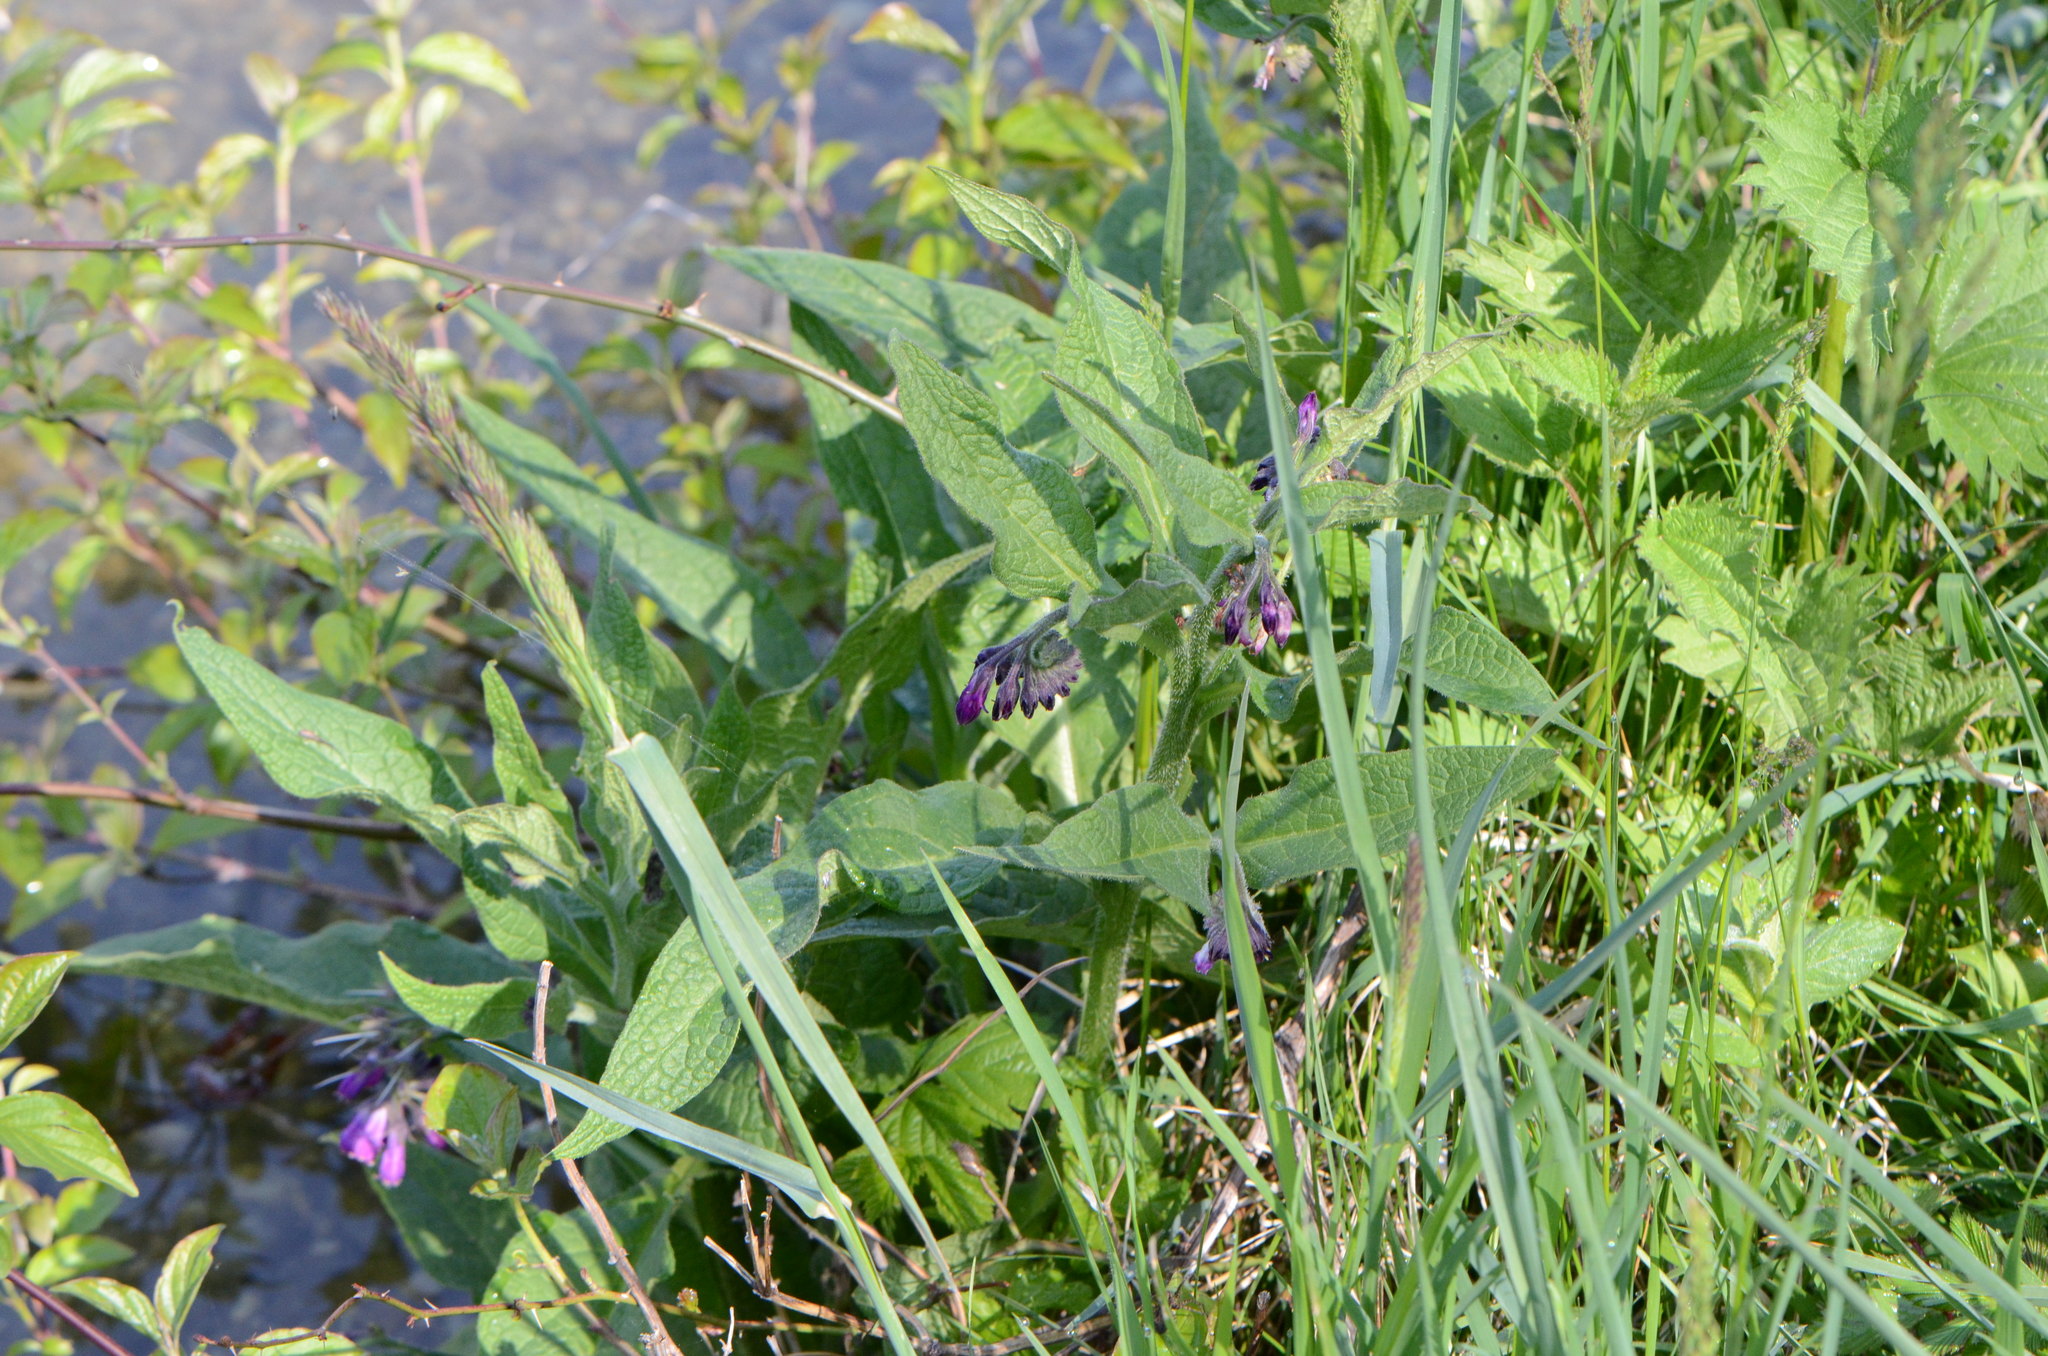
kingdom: Plantae
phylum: Tracheophyta
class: Magnoliopsida
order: Boraginales
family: Boraginaceae
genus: Symphytum
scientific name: Symphytum officinale
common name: Common comfrey
